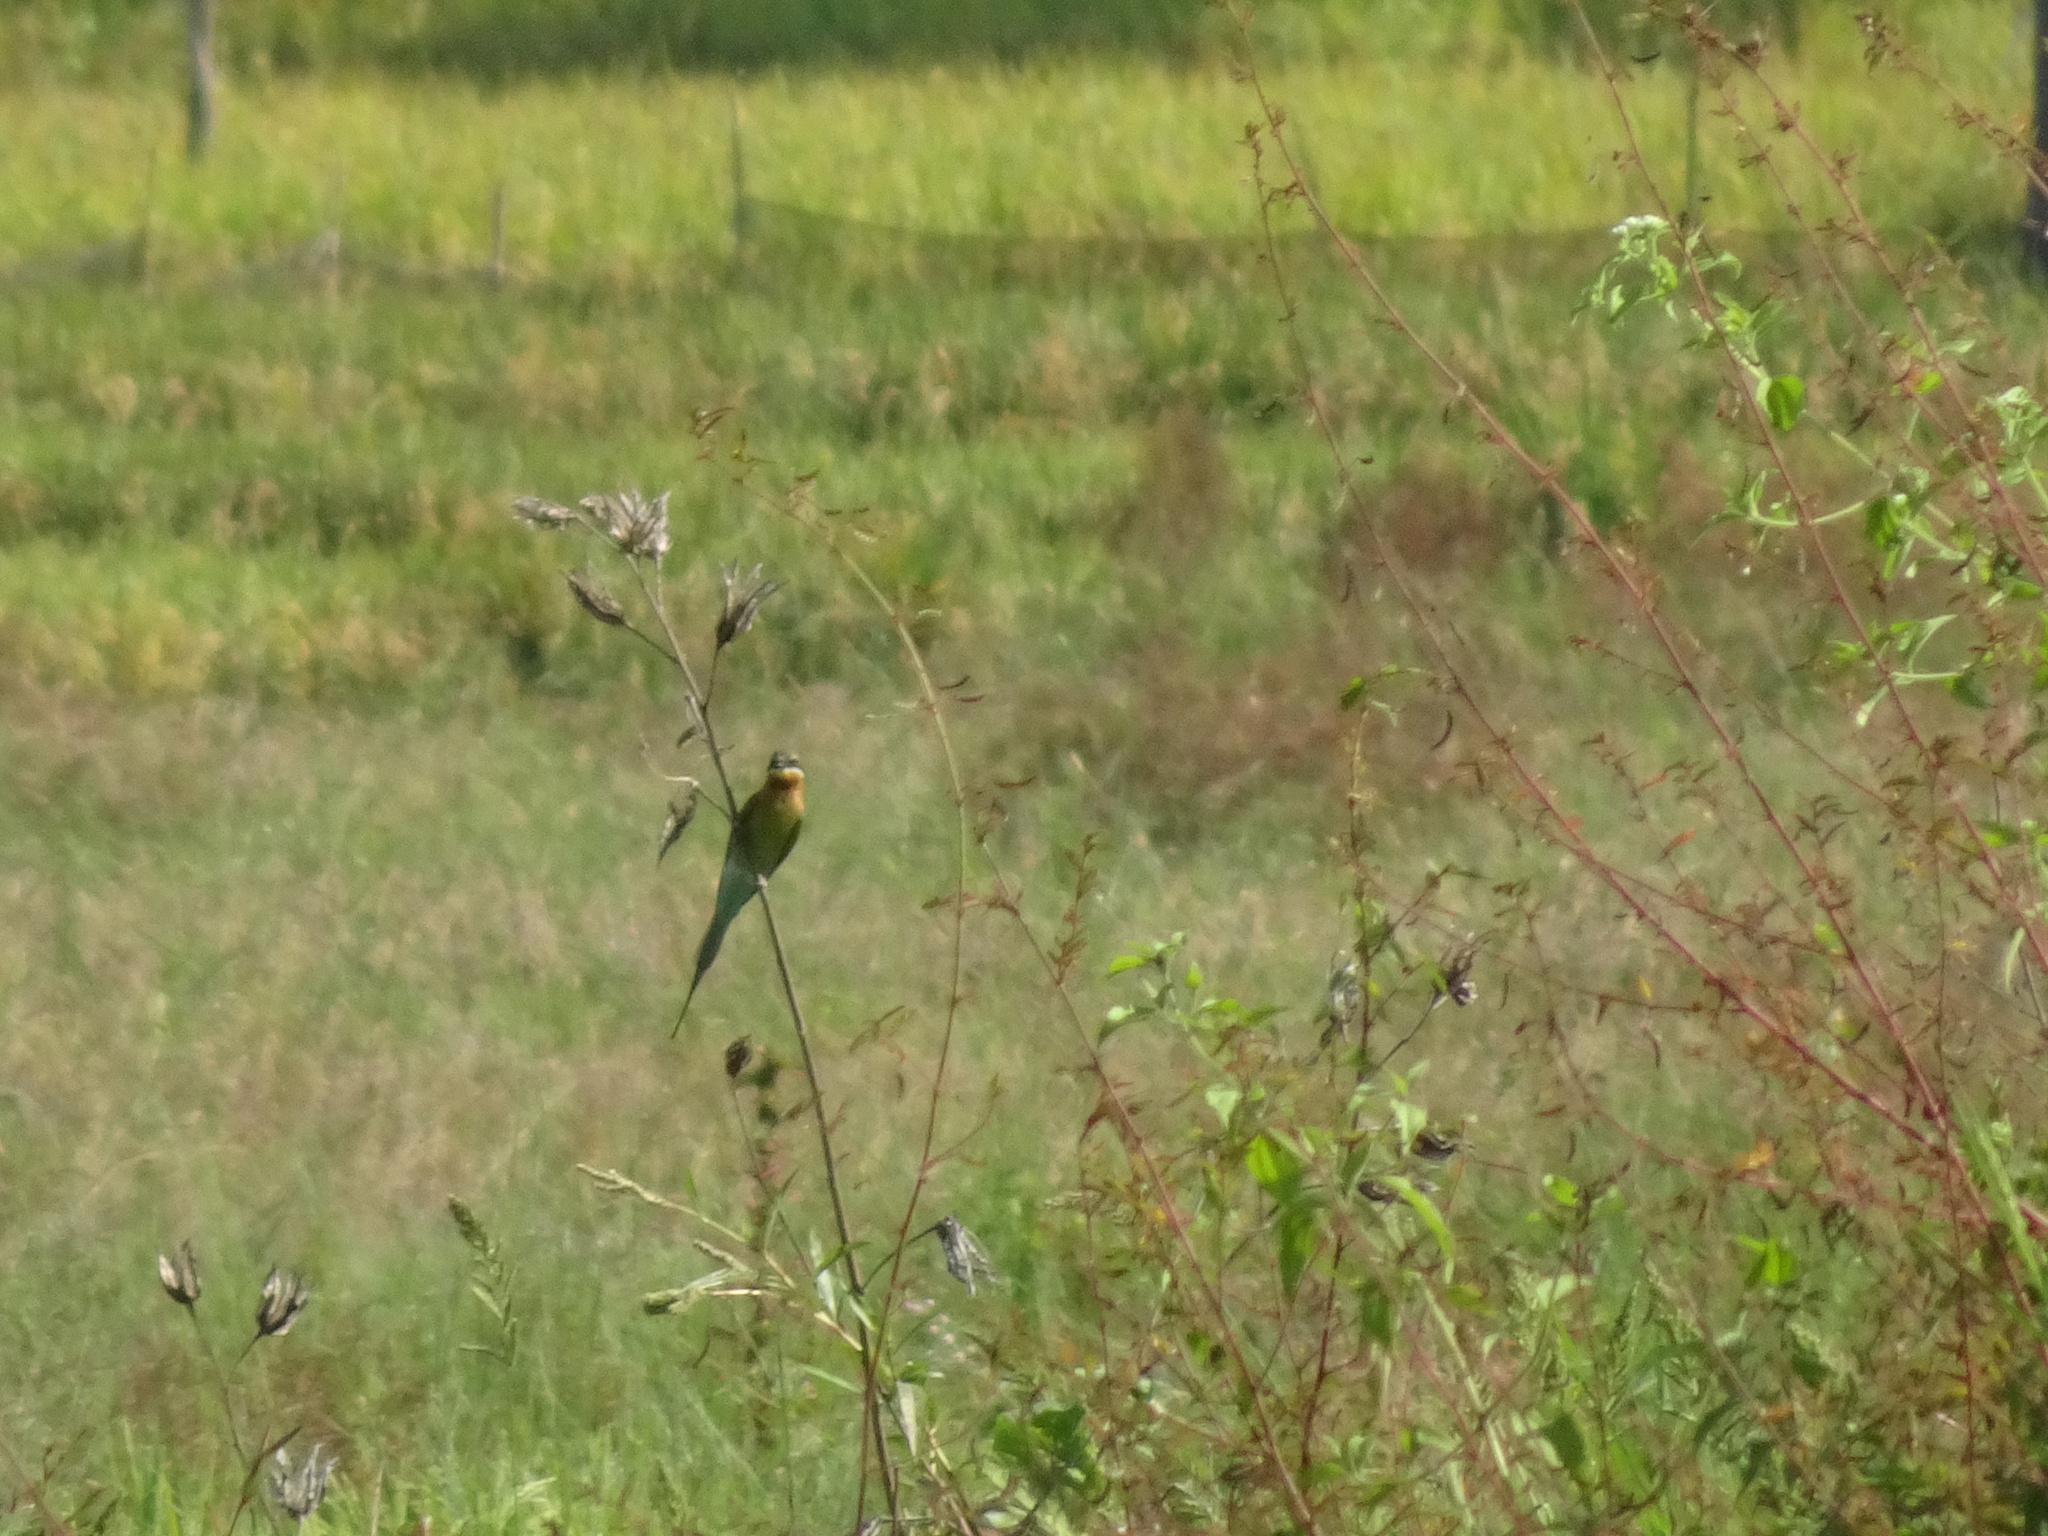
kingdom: Animalia
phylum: Chordata
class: Aves
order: Coraciiformes
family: Meropidae
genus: Merops
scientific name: Merops philippinus
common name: Blue-tailed bee-eater
